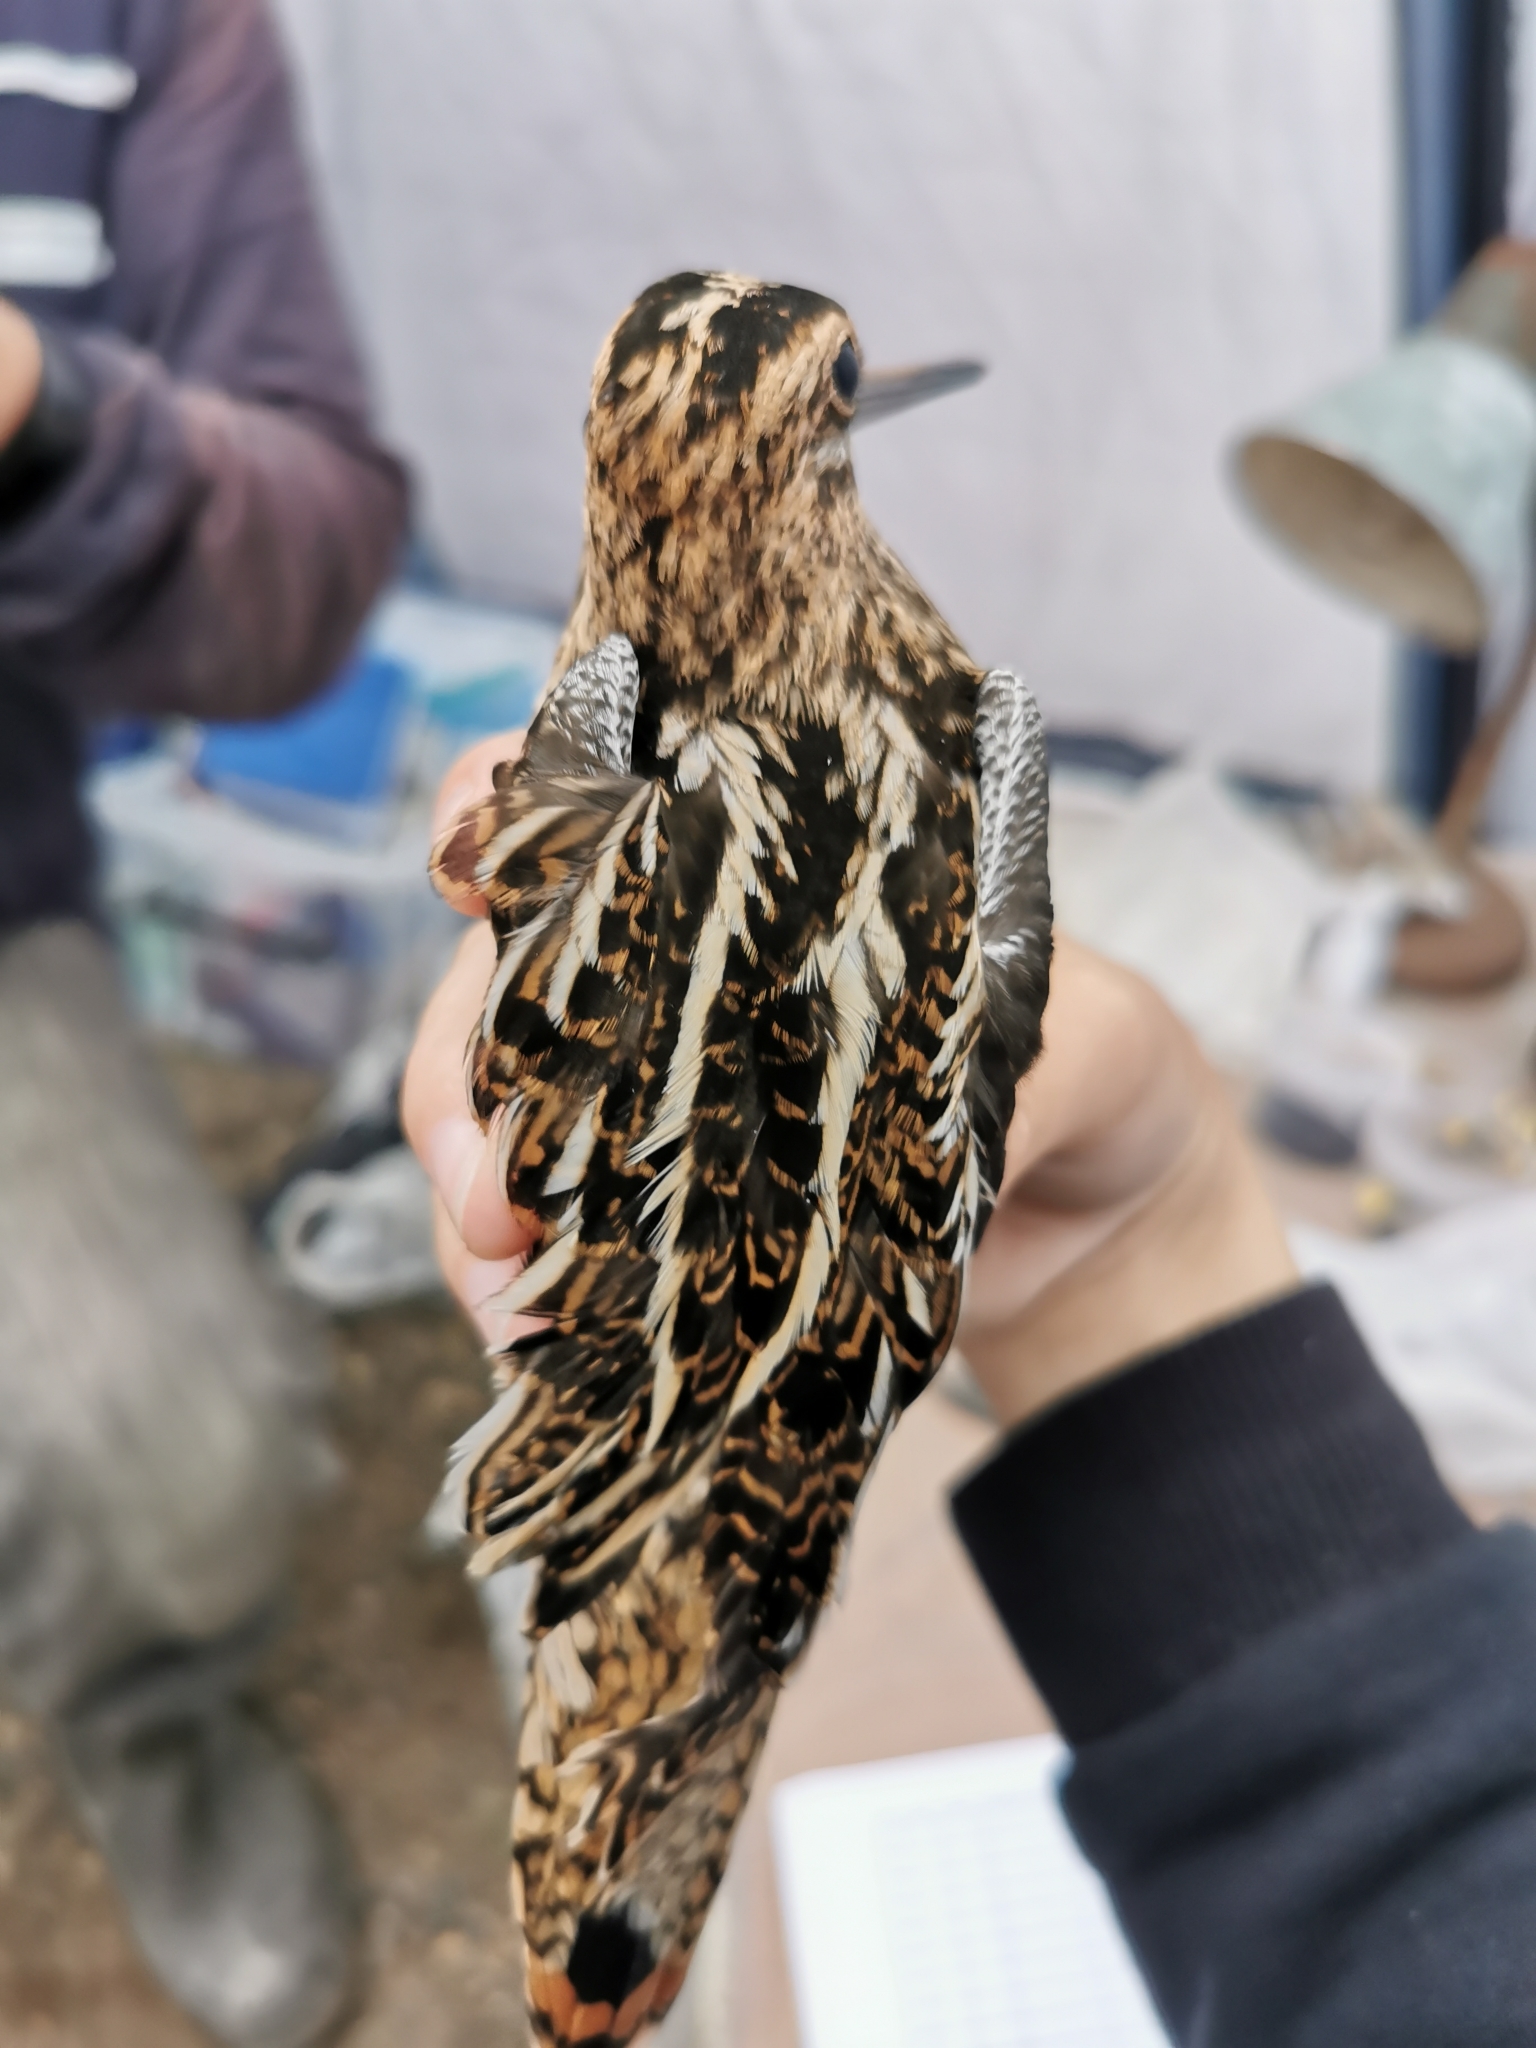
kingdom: Animalia
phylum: Chordata
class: Aves
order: Charadriiformes
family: Scolopacidae
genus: Gallinago
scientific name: Gallinago gallinago
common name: Common snipe
